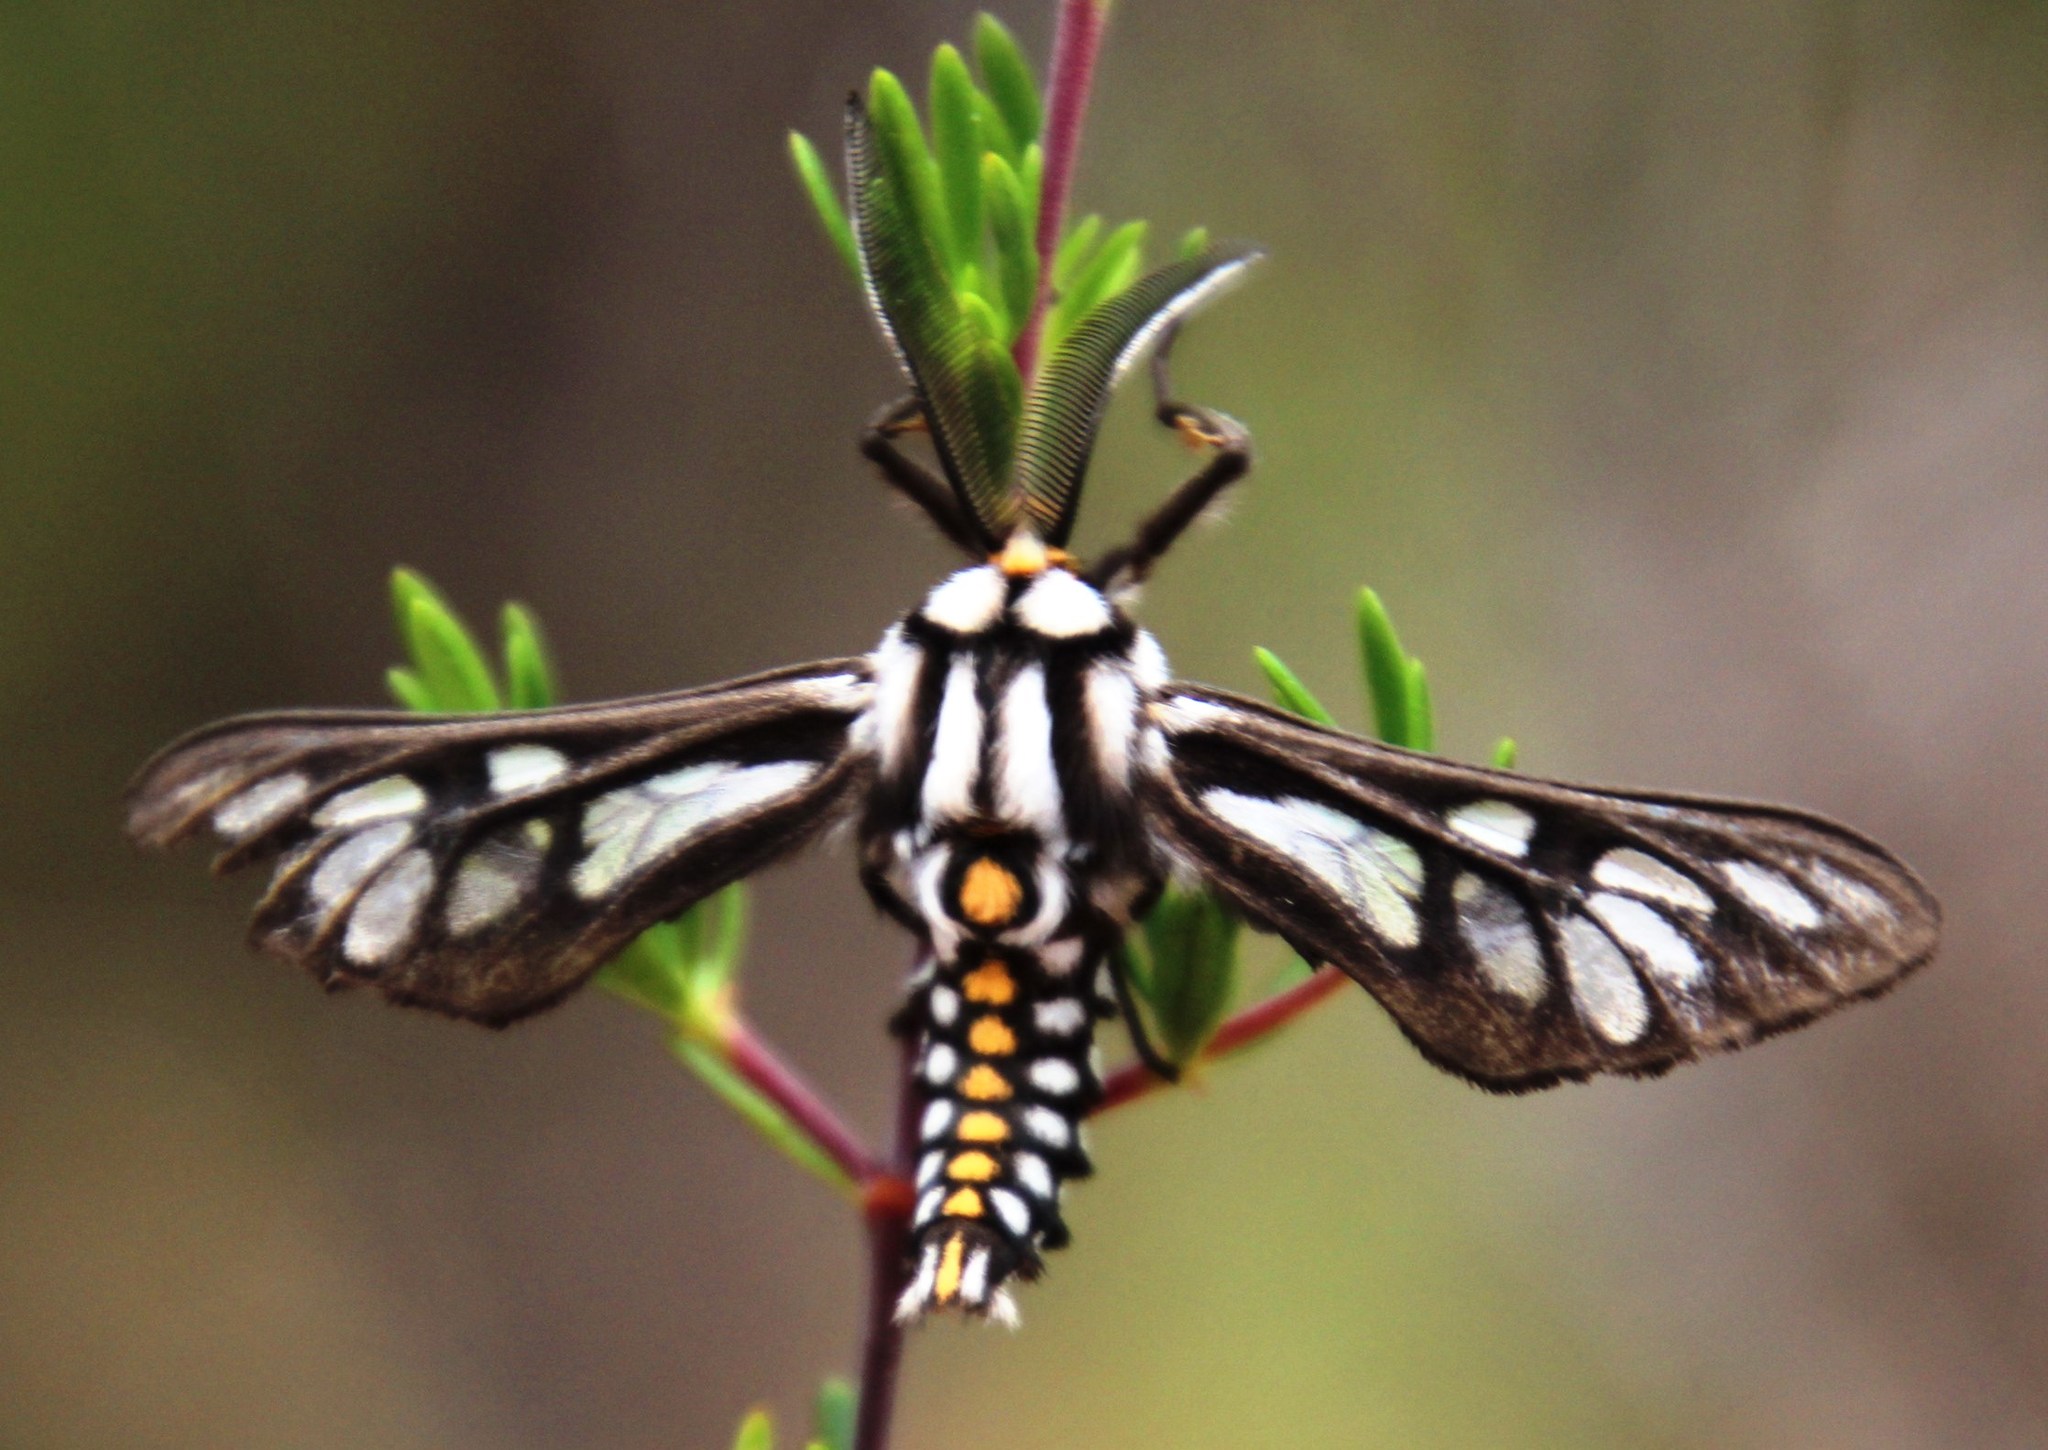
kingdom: Animalia
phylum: Arthropoda
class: Insecta
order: Lepidoptera
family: Erebidae
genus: Thyretes
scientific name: Thyretes hippotes
